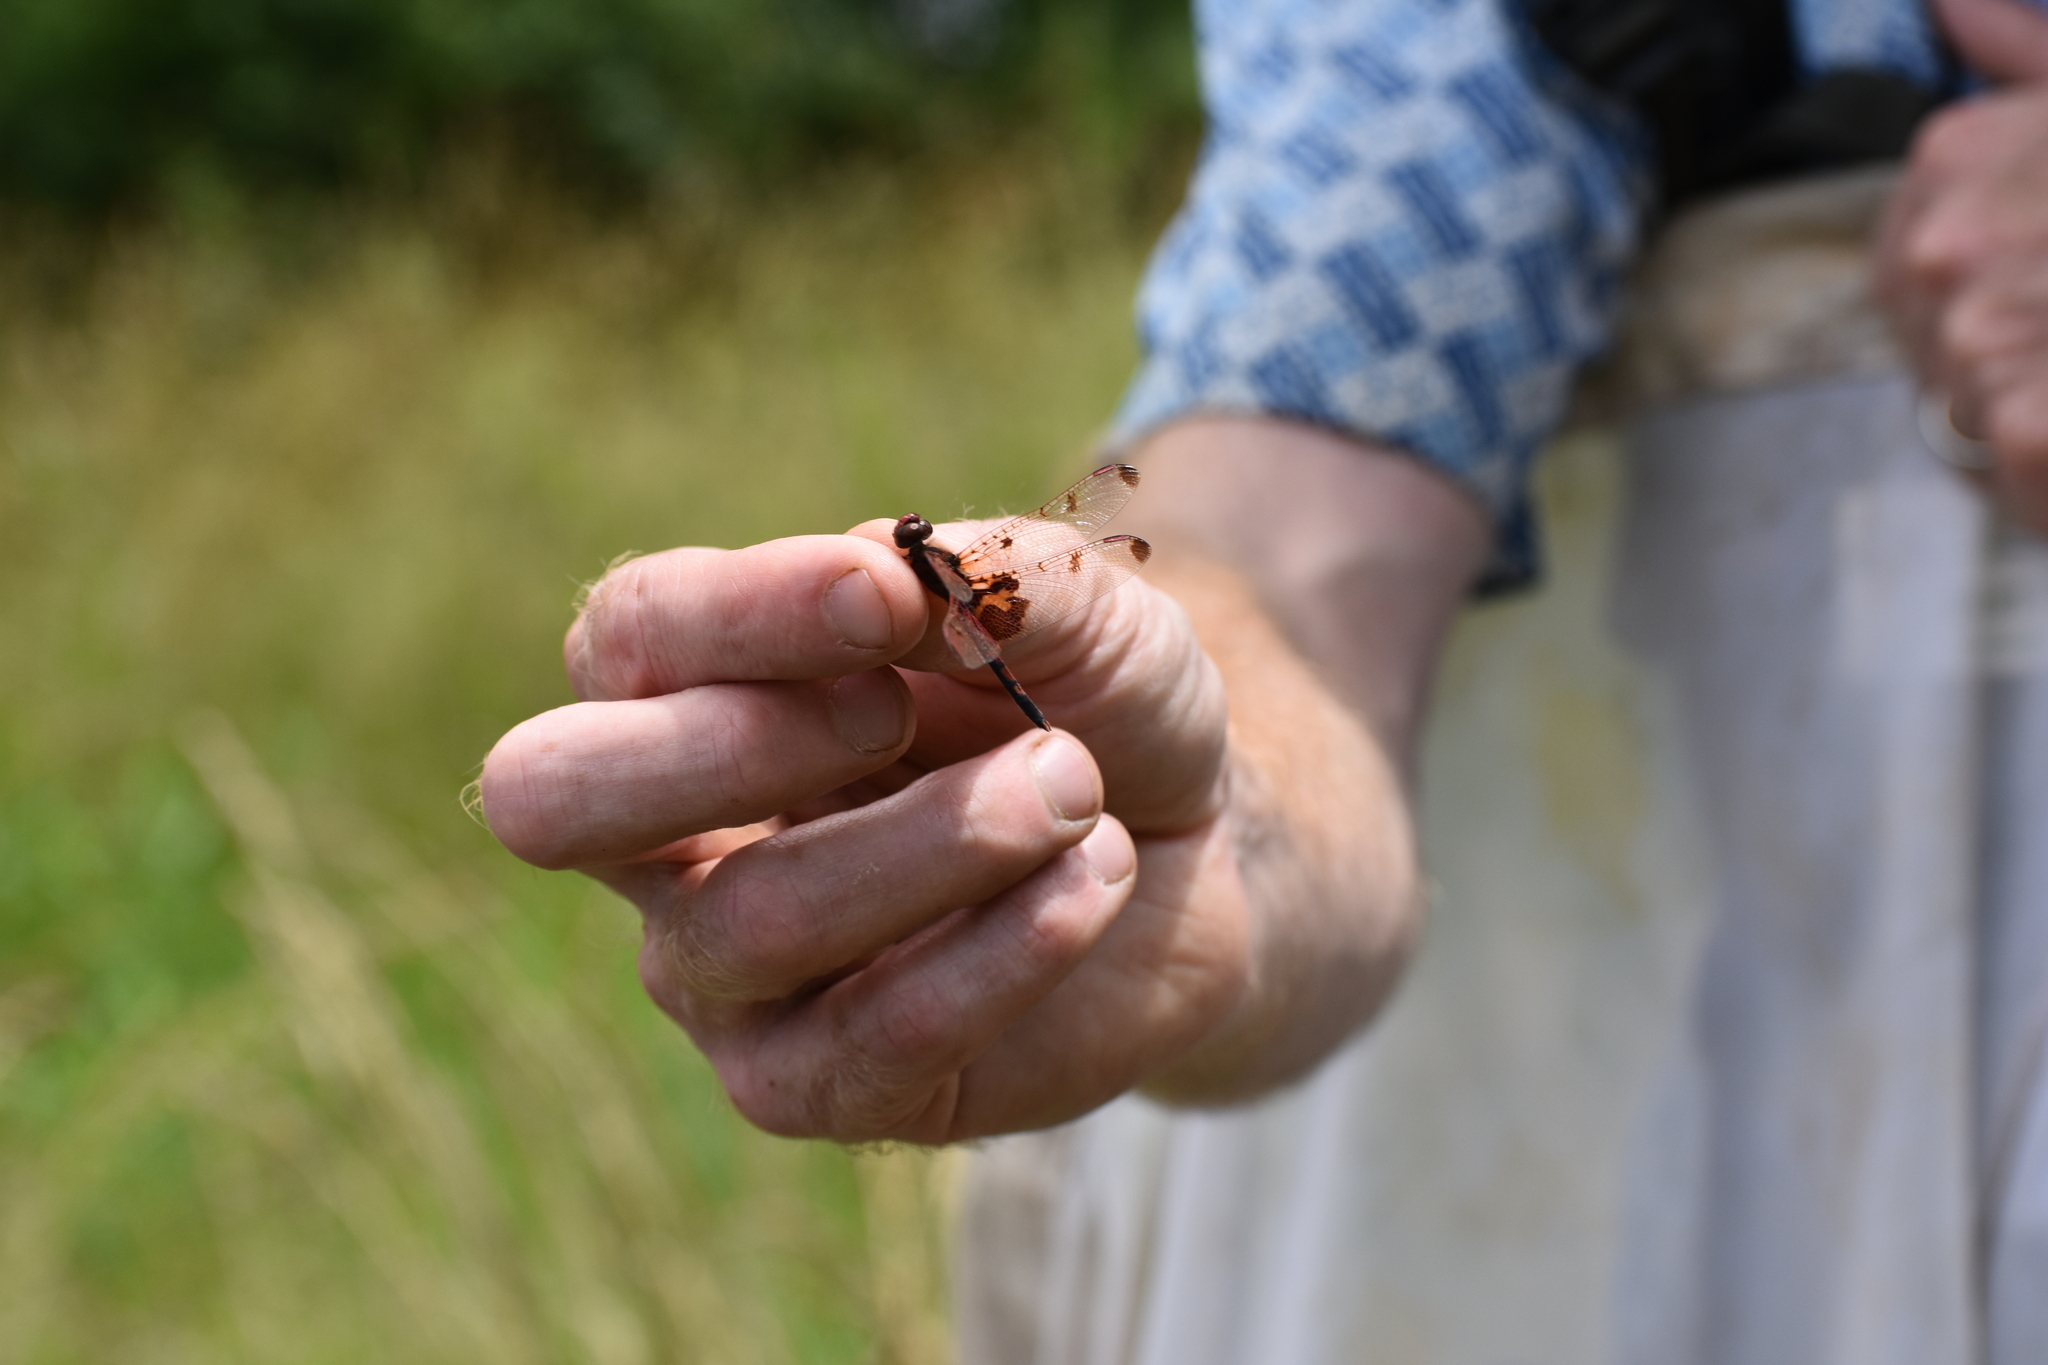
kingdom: Animalia
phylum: Arthropoda
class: Insecta
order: Odonata
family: Libellulidae
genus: Celithemis
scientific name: Celithemis elisa
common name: Calico pennant
